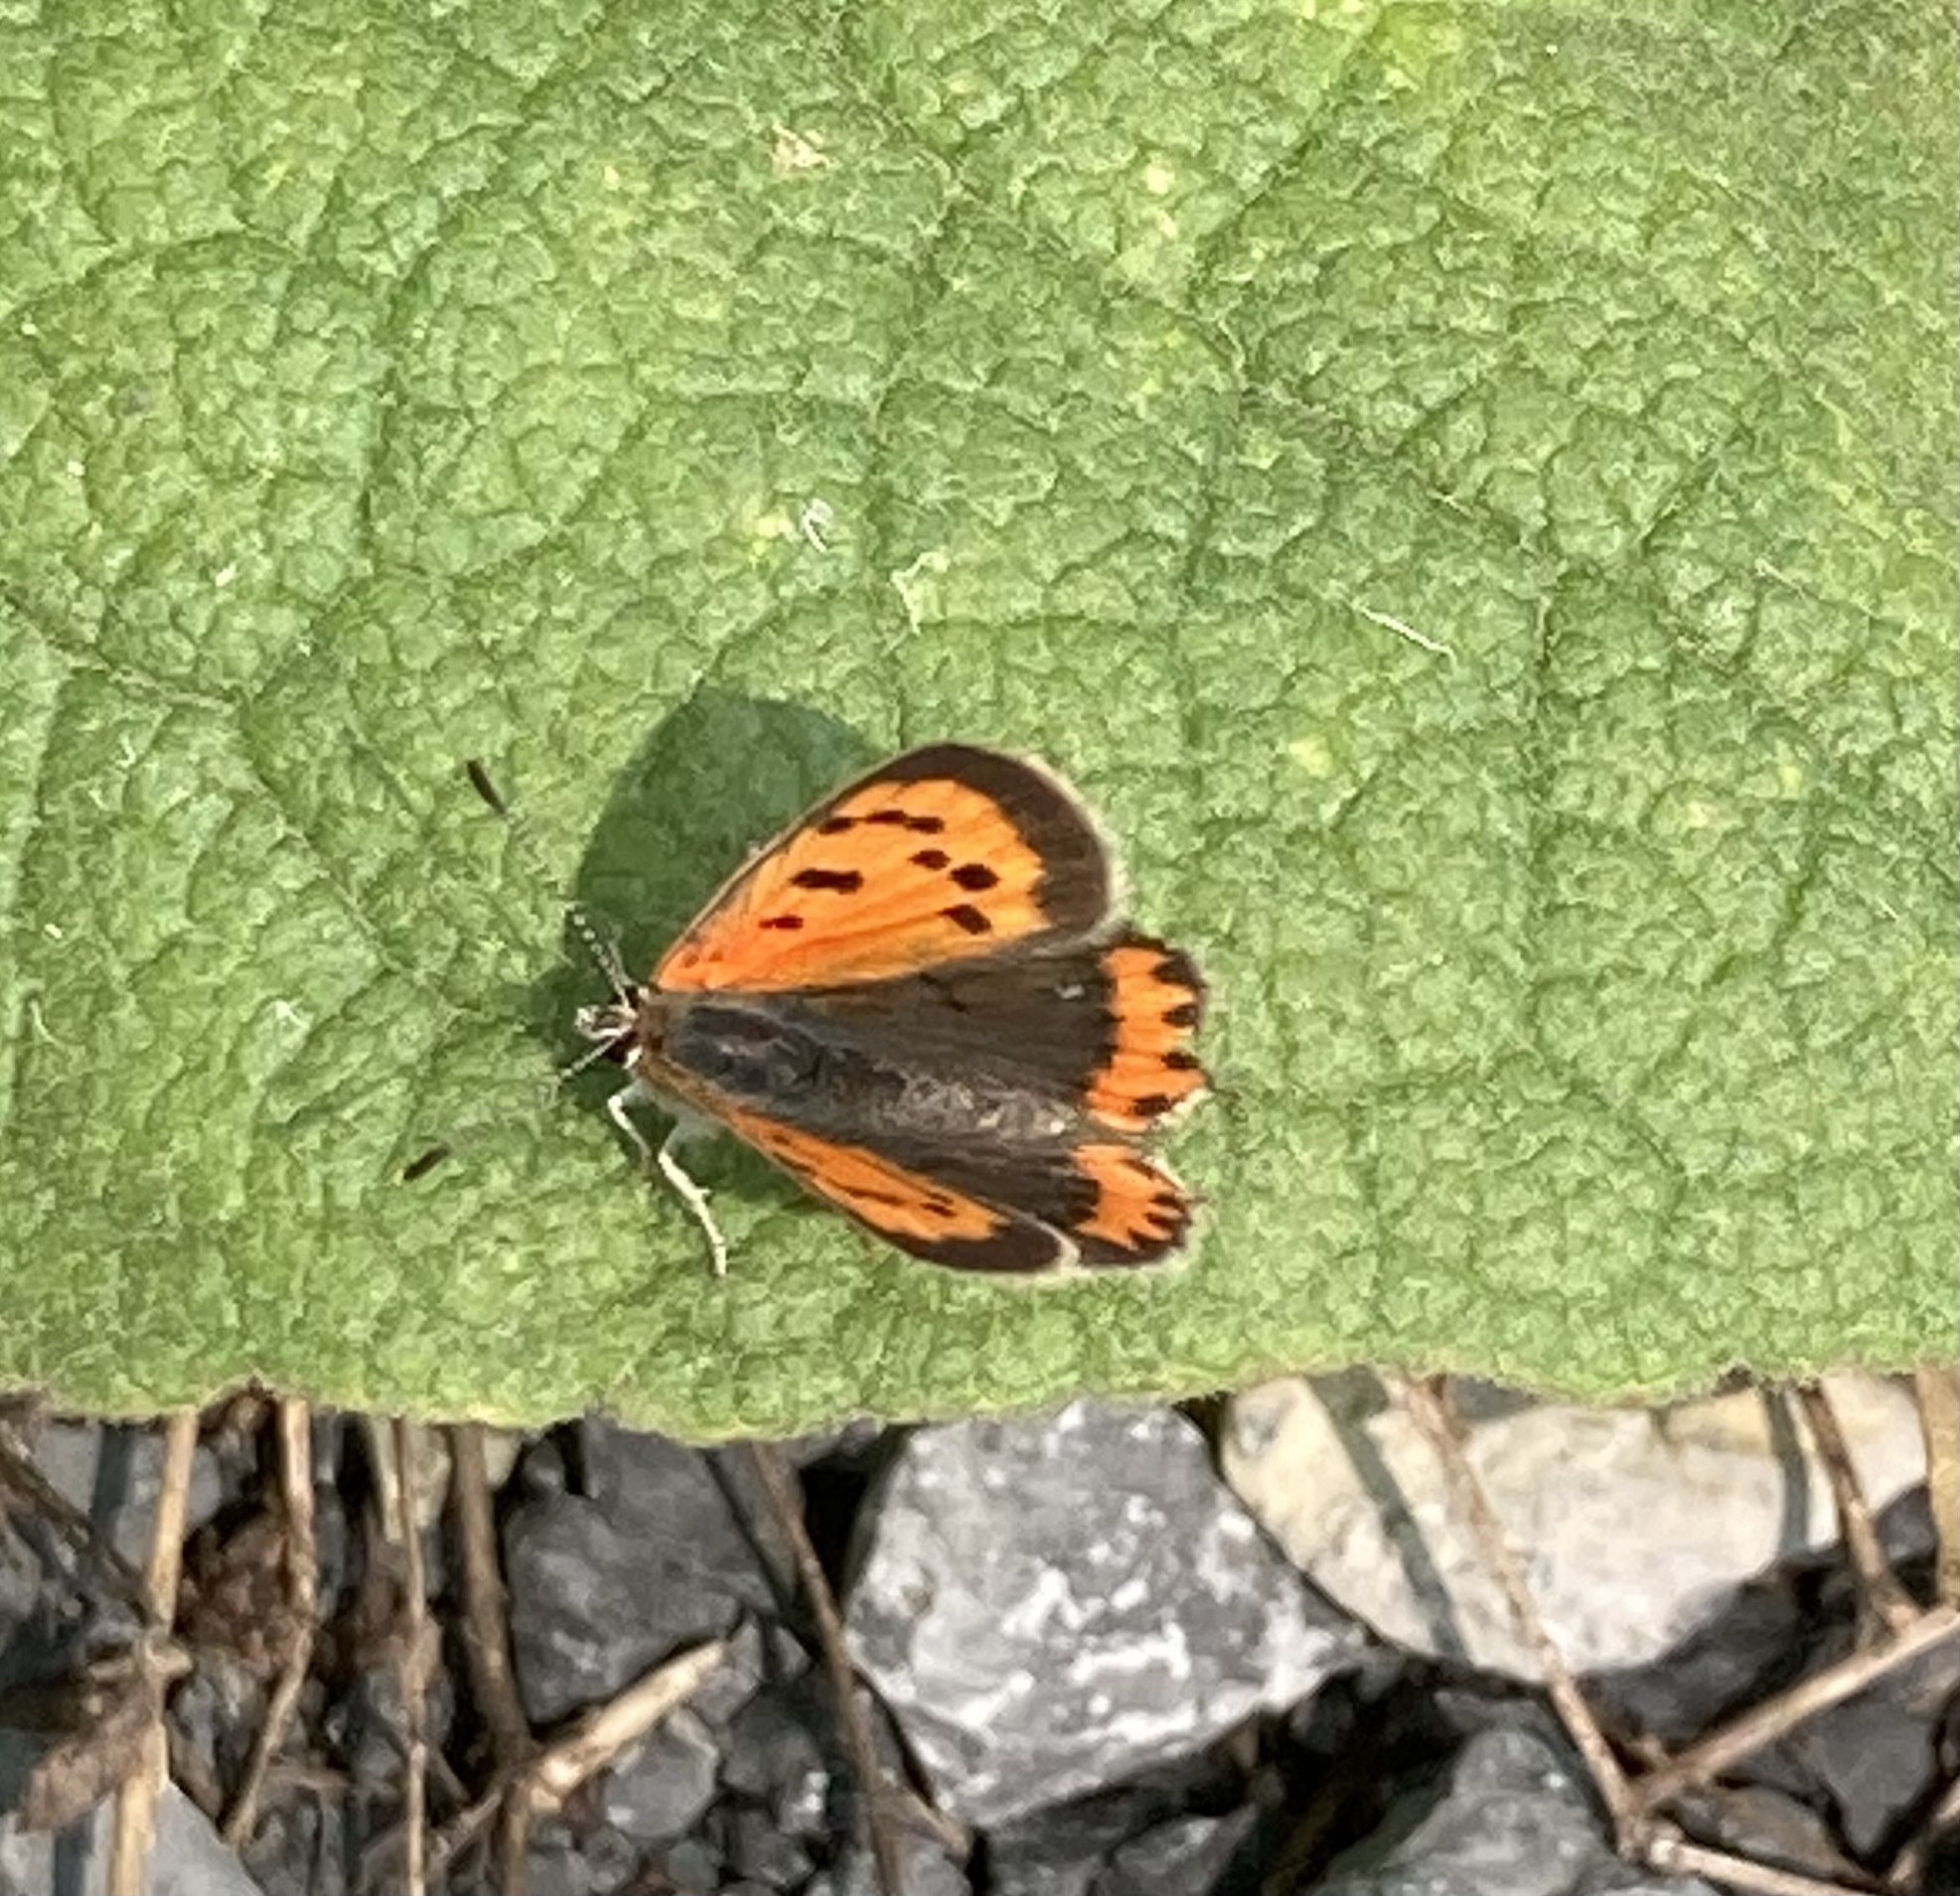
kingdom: Animalia
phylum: Arthropoda
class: Insecta
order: Lepidoptera
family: Lycaenidae
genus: Lycaena
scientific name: Lycaena hypophlaeas
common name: American copper
